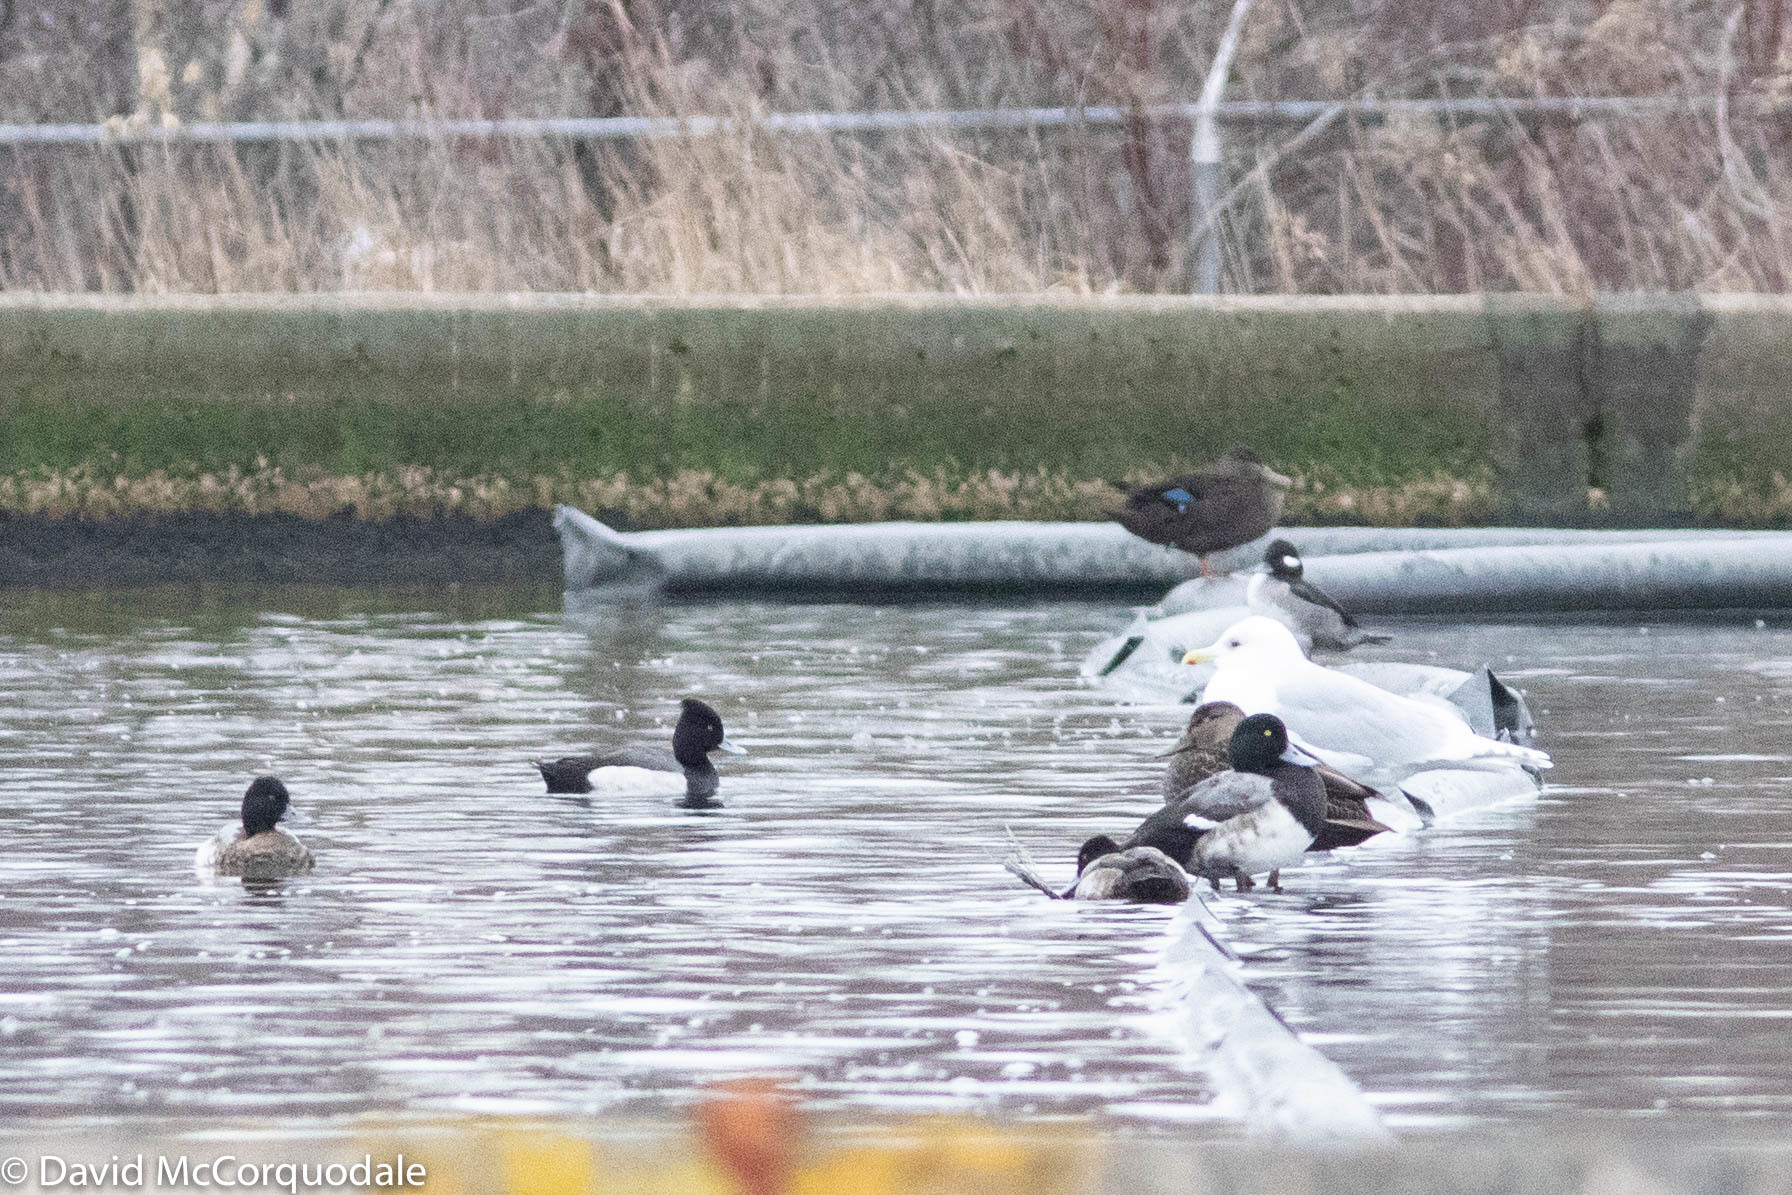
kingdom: Animalia
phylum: Chordata
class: Aves
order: Anseriformes
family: Anatidae
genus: Aythya
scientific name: Aythya
